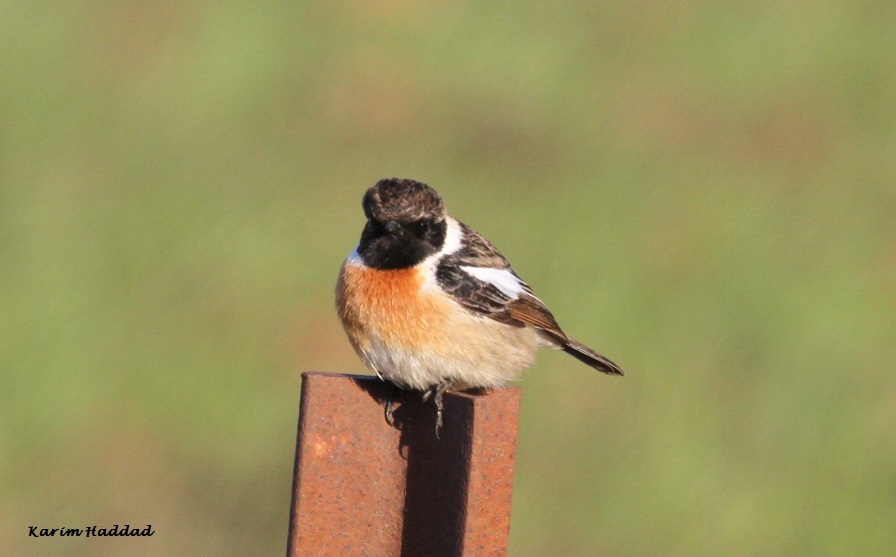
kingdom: Animalia
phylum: Chordata
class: Aves
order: Passeriformes
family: Muscicapidae
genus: Saxicola
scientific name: Saxicola rubicola
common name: European stonechat
